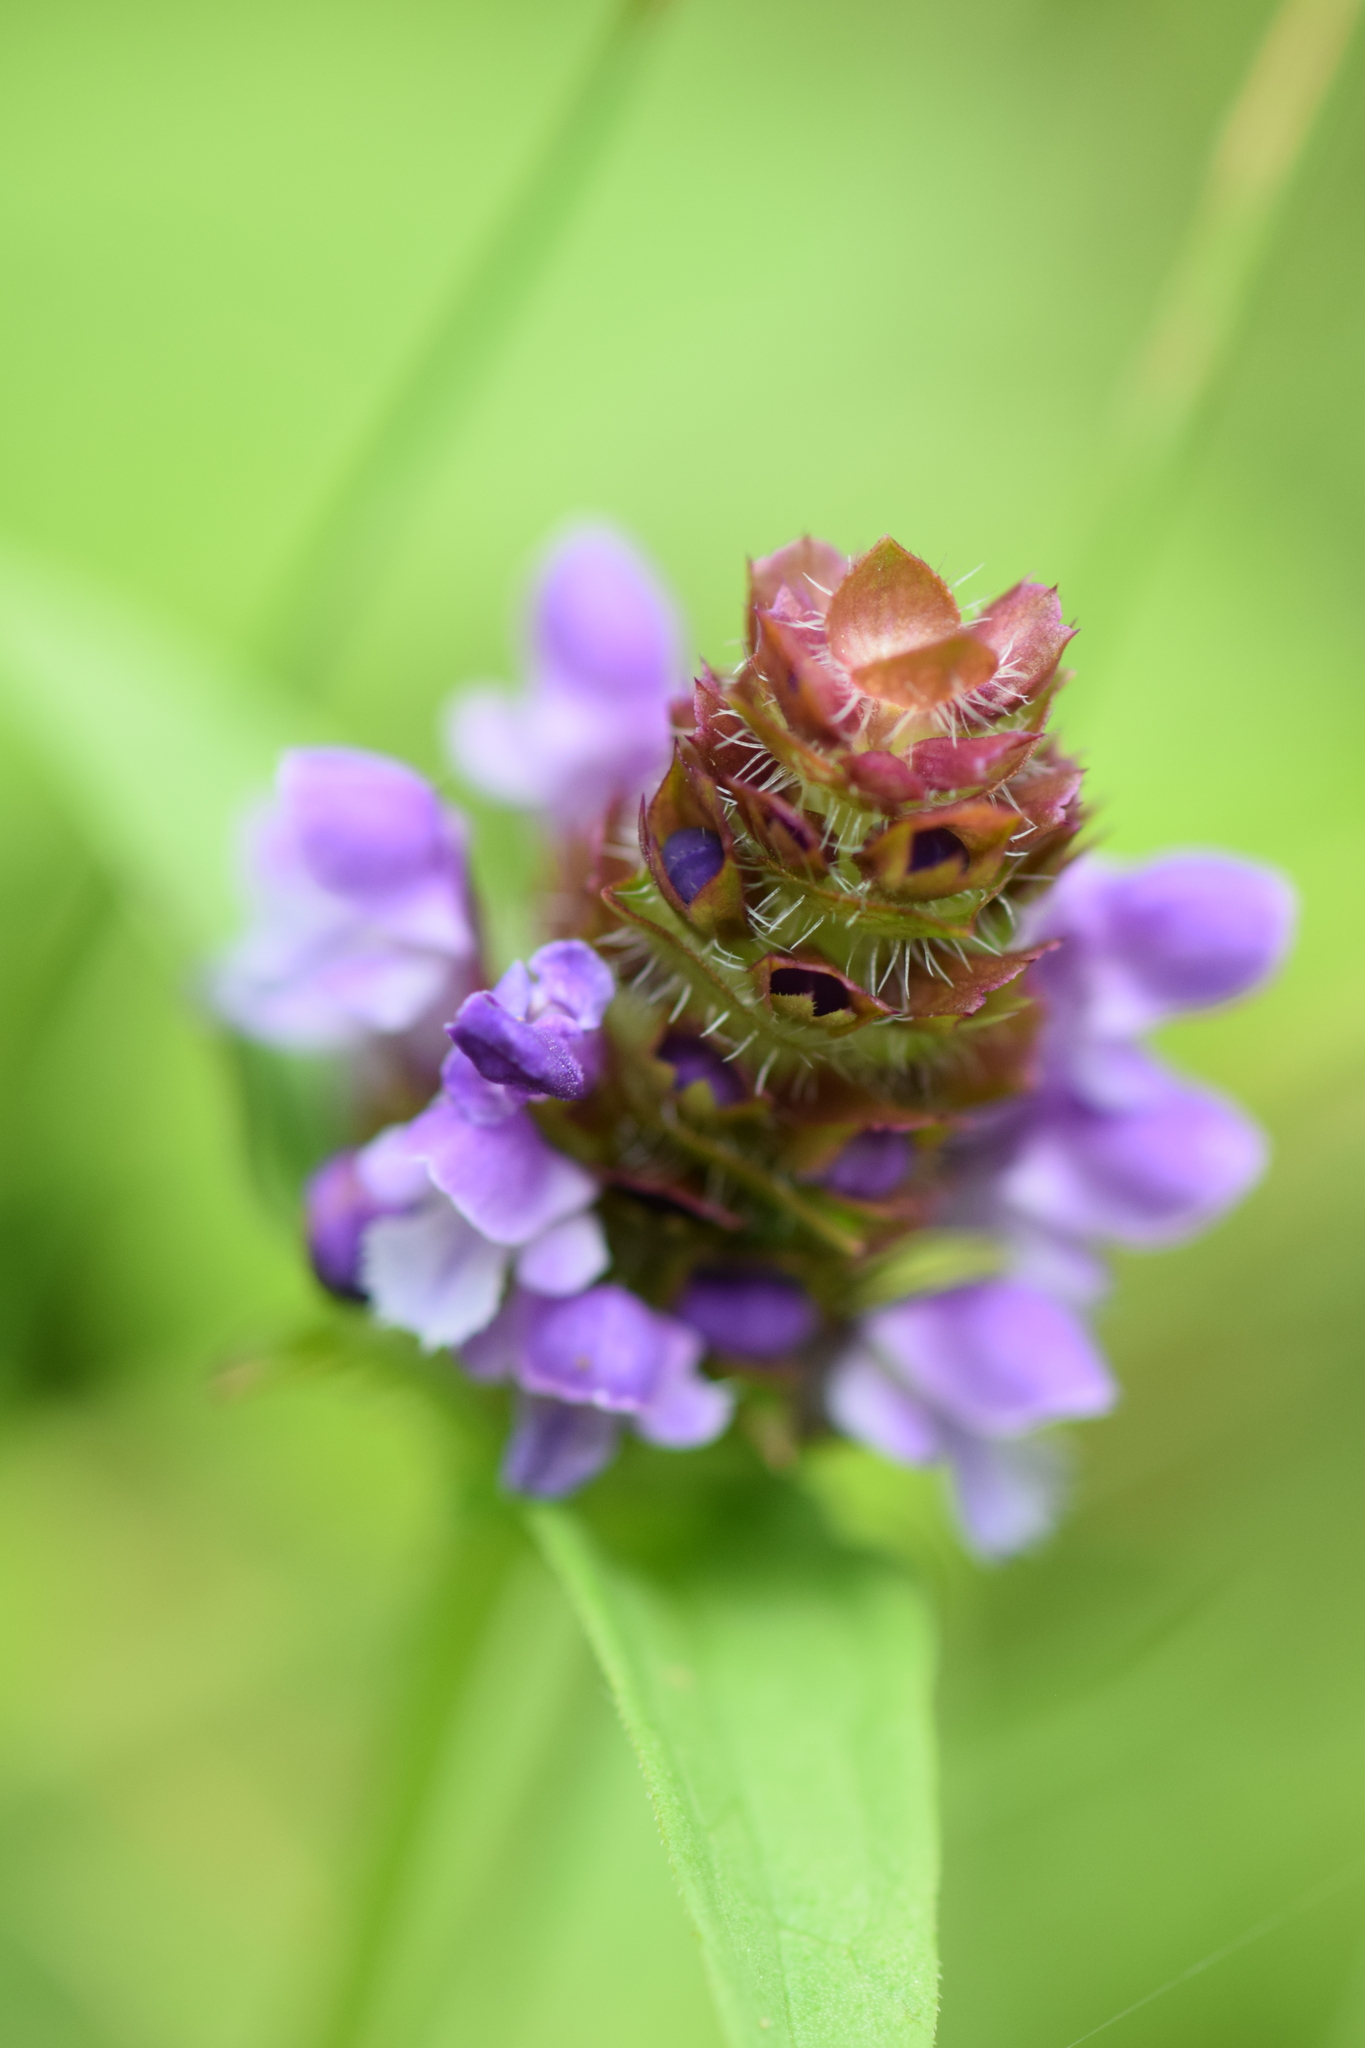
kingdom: Plantae
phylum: Tracheophyta
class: Magnoliopsida
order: Lamiales
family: Lamiaceae
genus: Prunella
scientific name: Prunella vulgaris
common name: Heal-all
